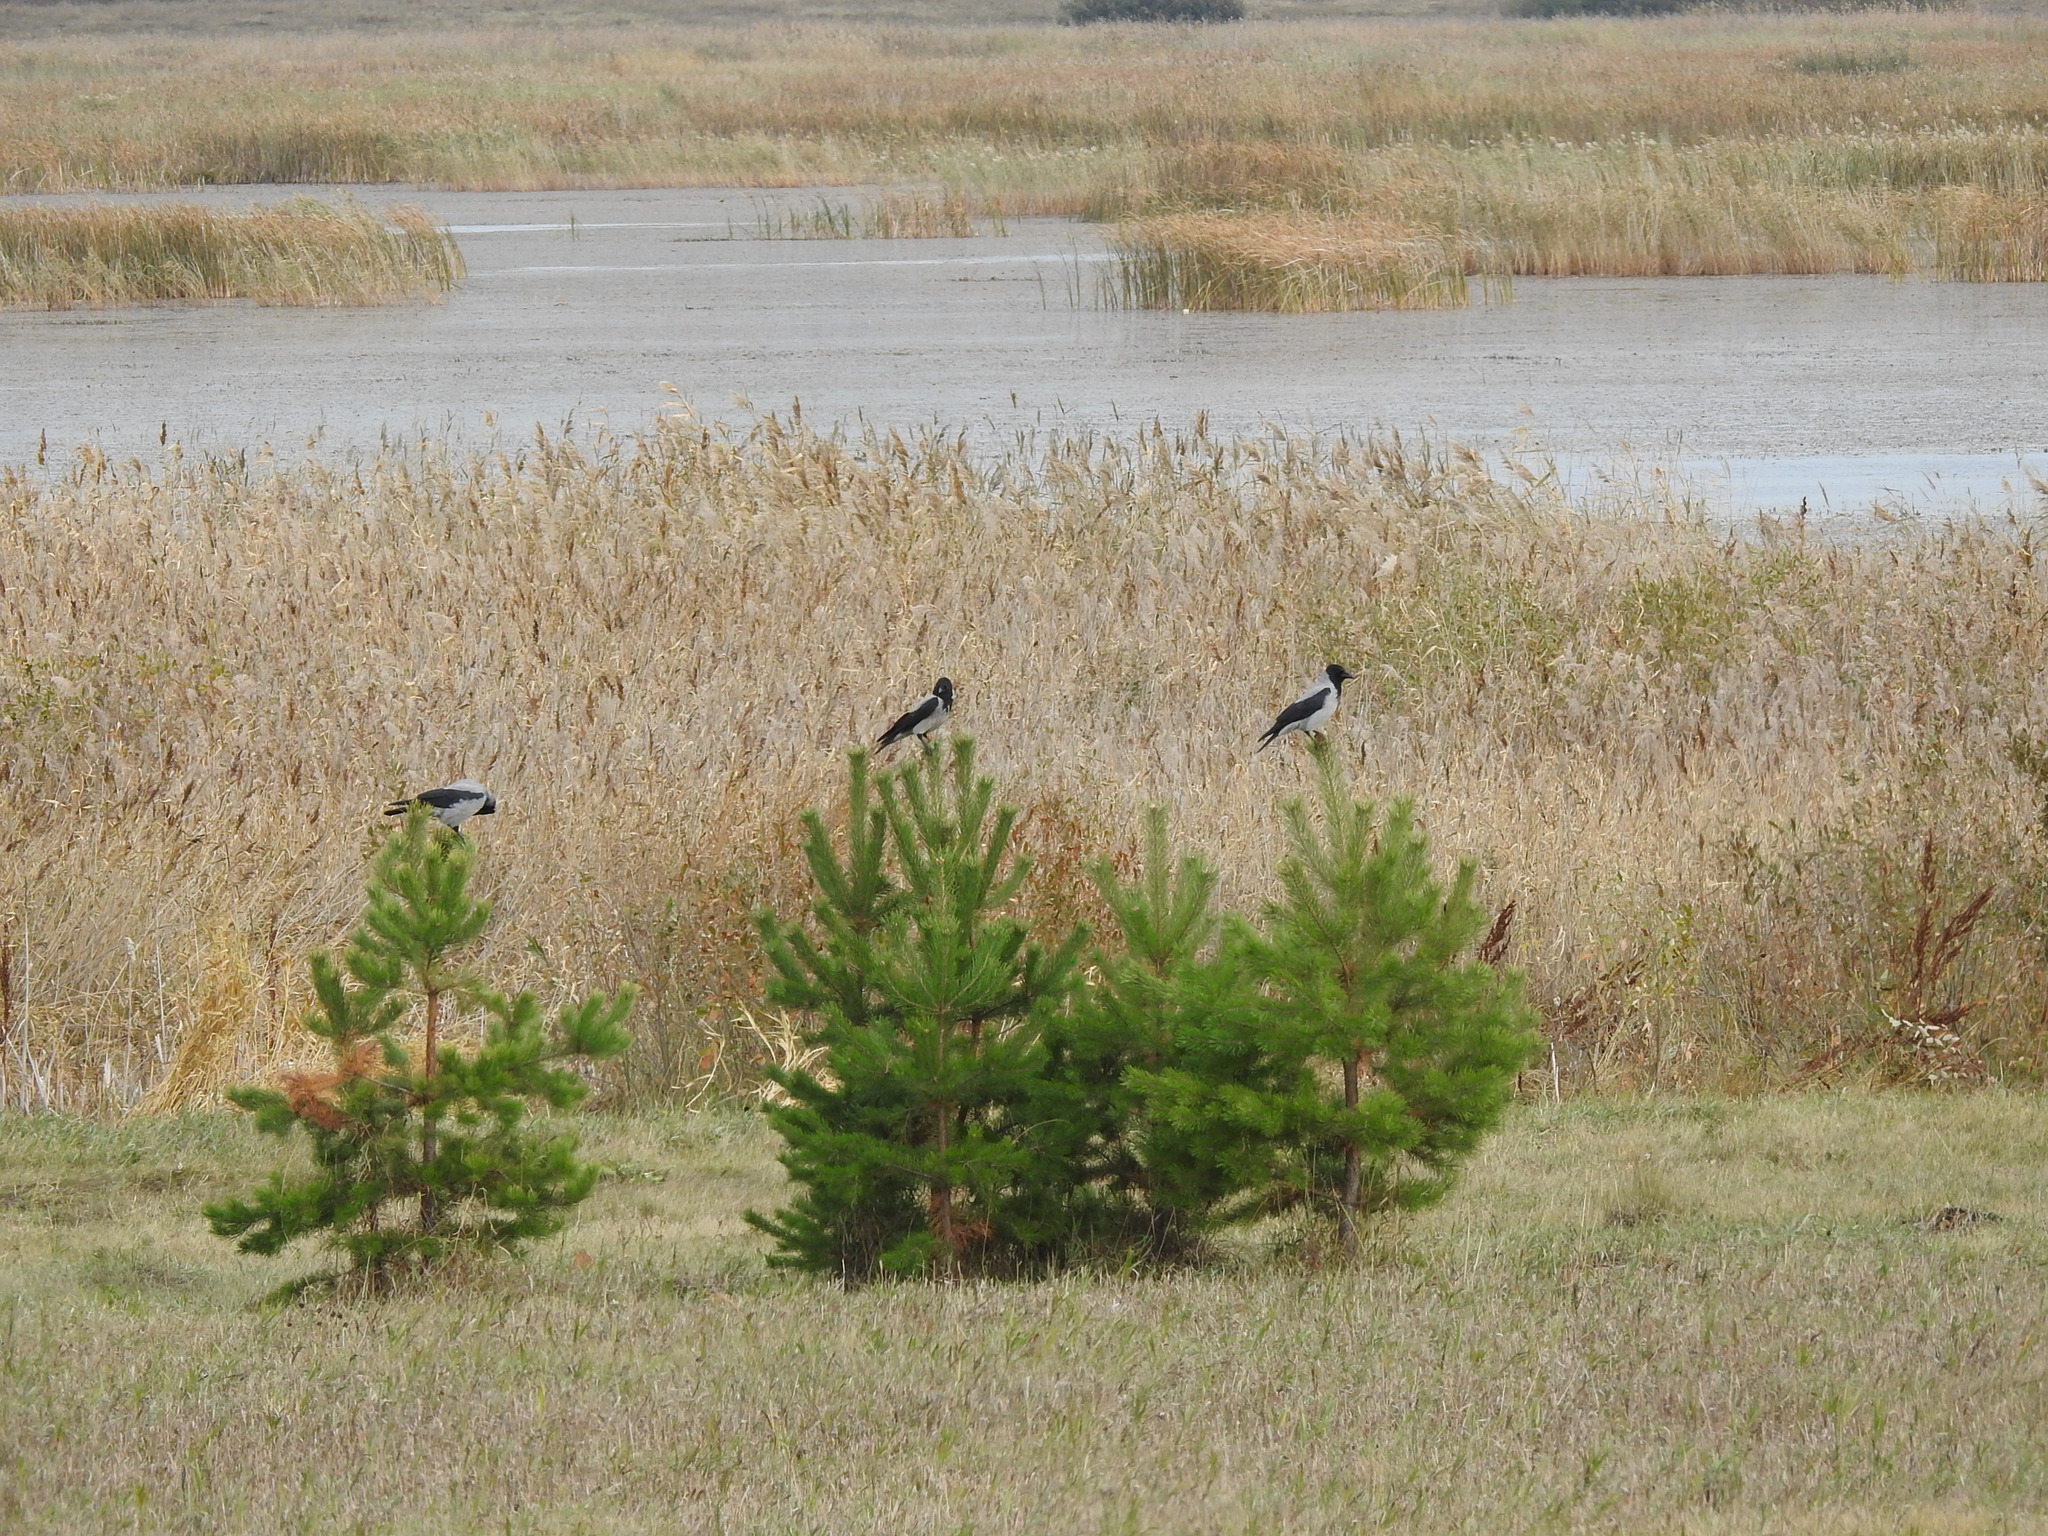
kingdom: Animalia
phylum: Chordata
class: Aves
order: Passeriformes
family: Corvidae
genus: Corvus
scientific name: Corvus cornix
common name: Hooded crow
